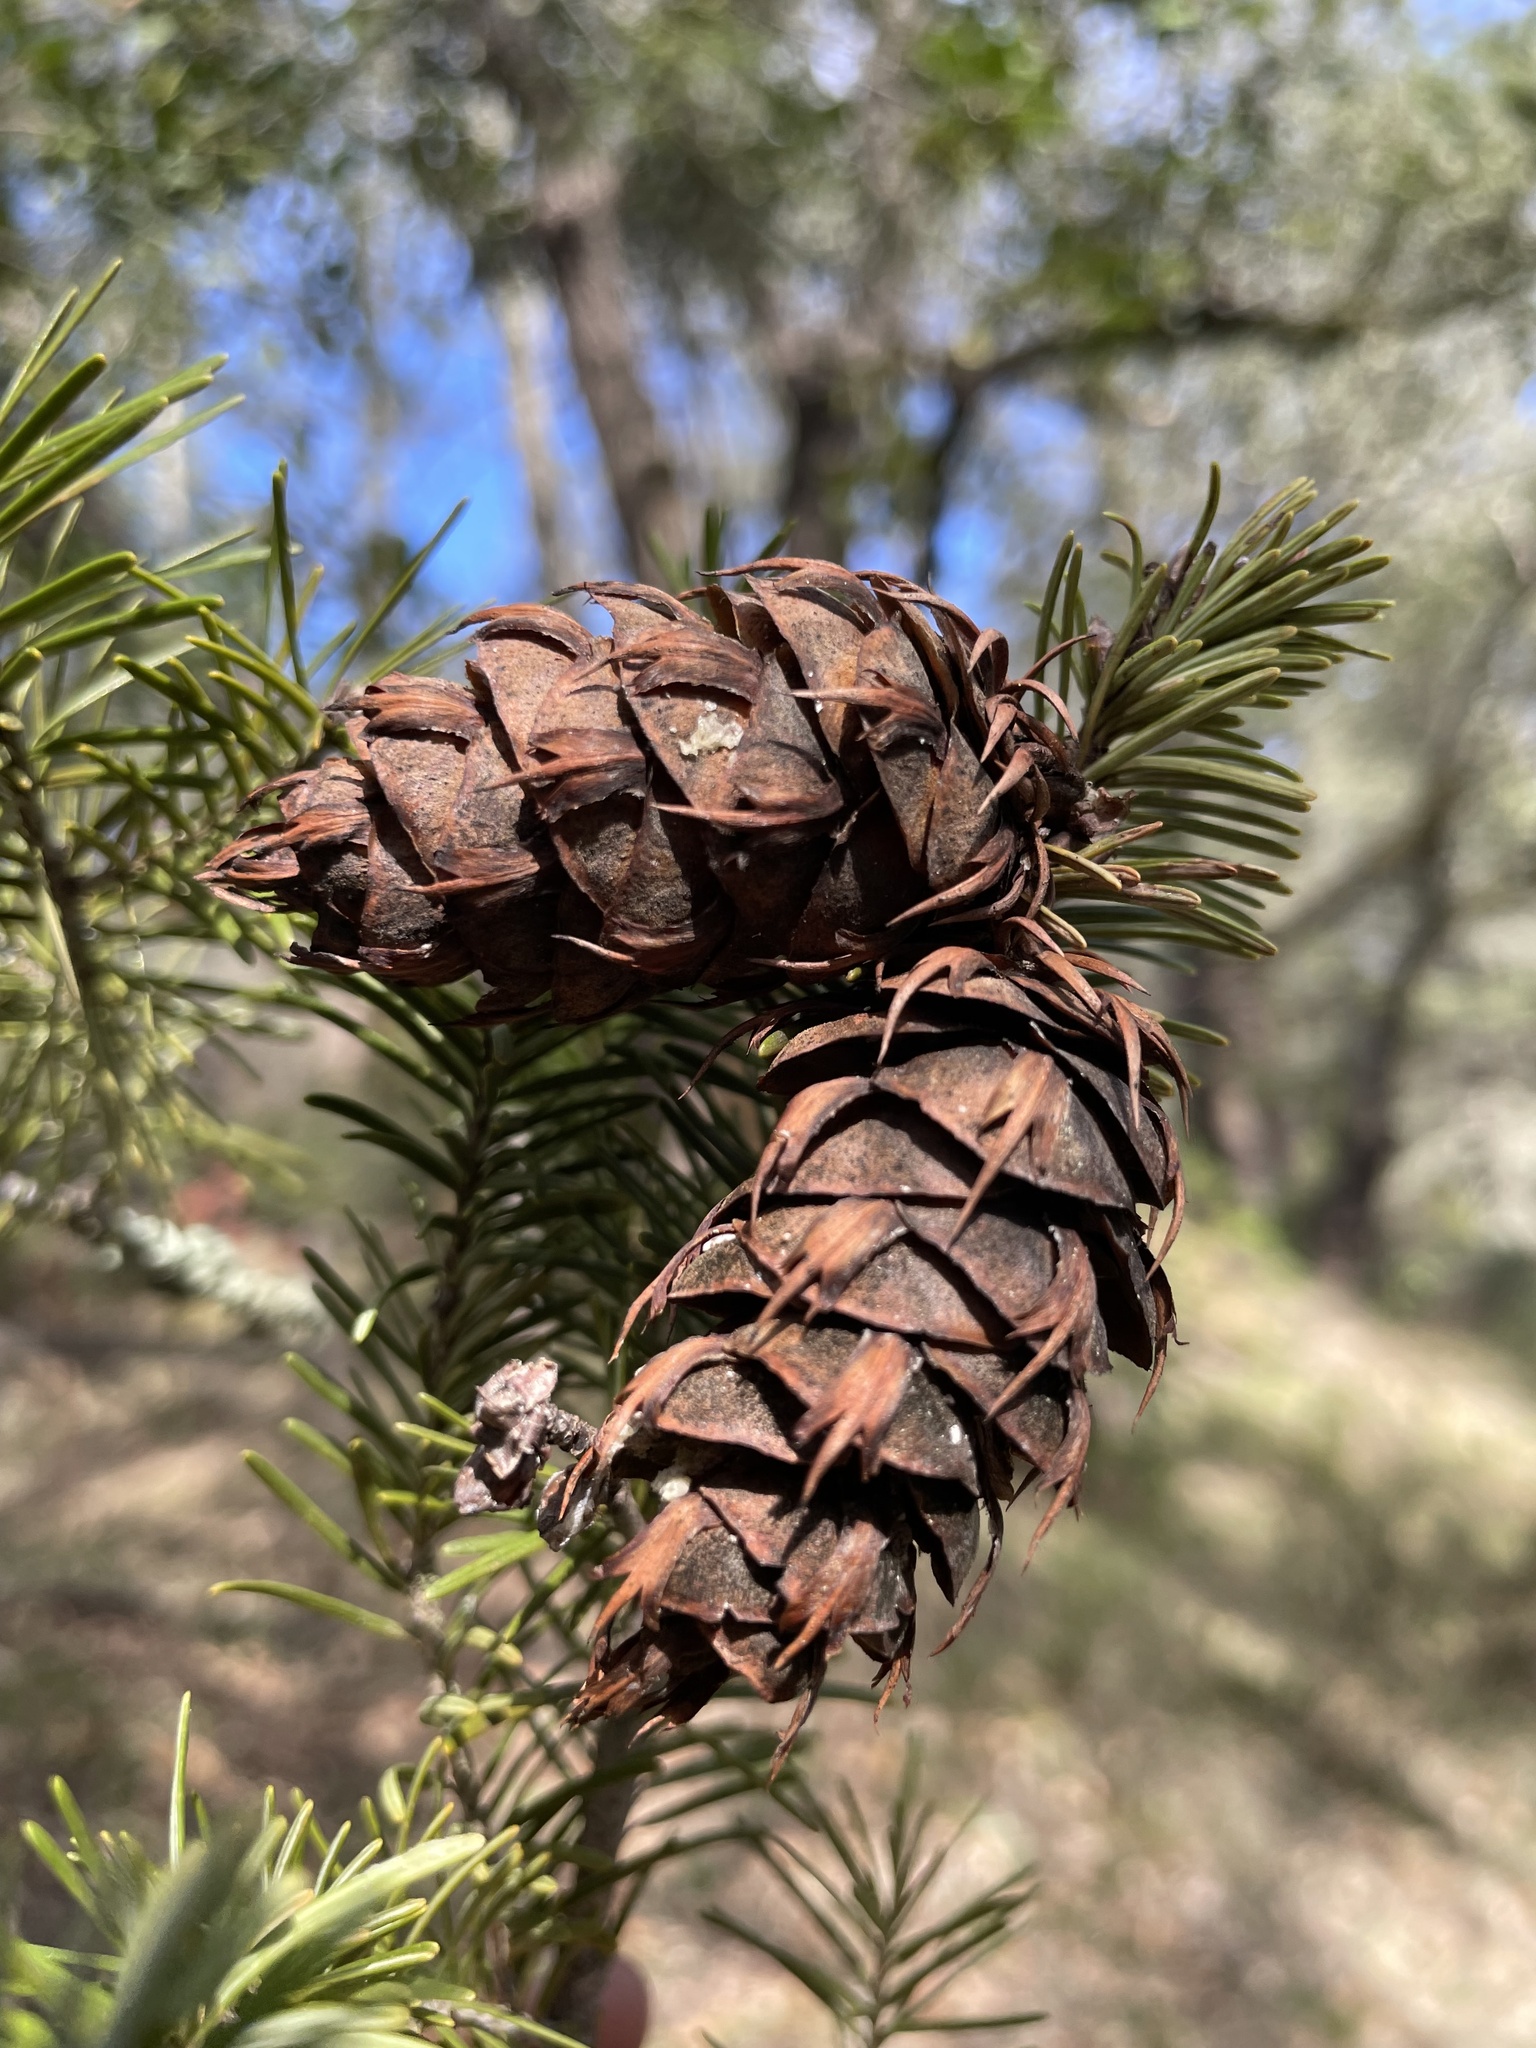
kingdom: Plantae
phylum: Tracheophyta
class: Pinopsida
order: Pinales
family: Pinaceae
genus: Pseudotsuga
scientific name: Pseudotsuga menziesii
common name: Douglas fir
